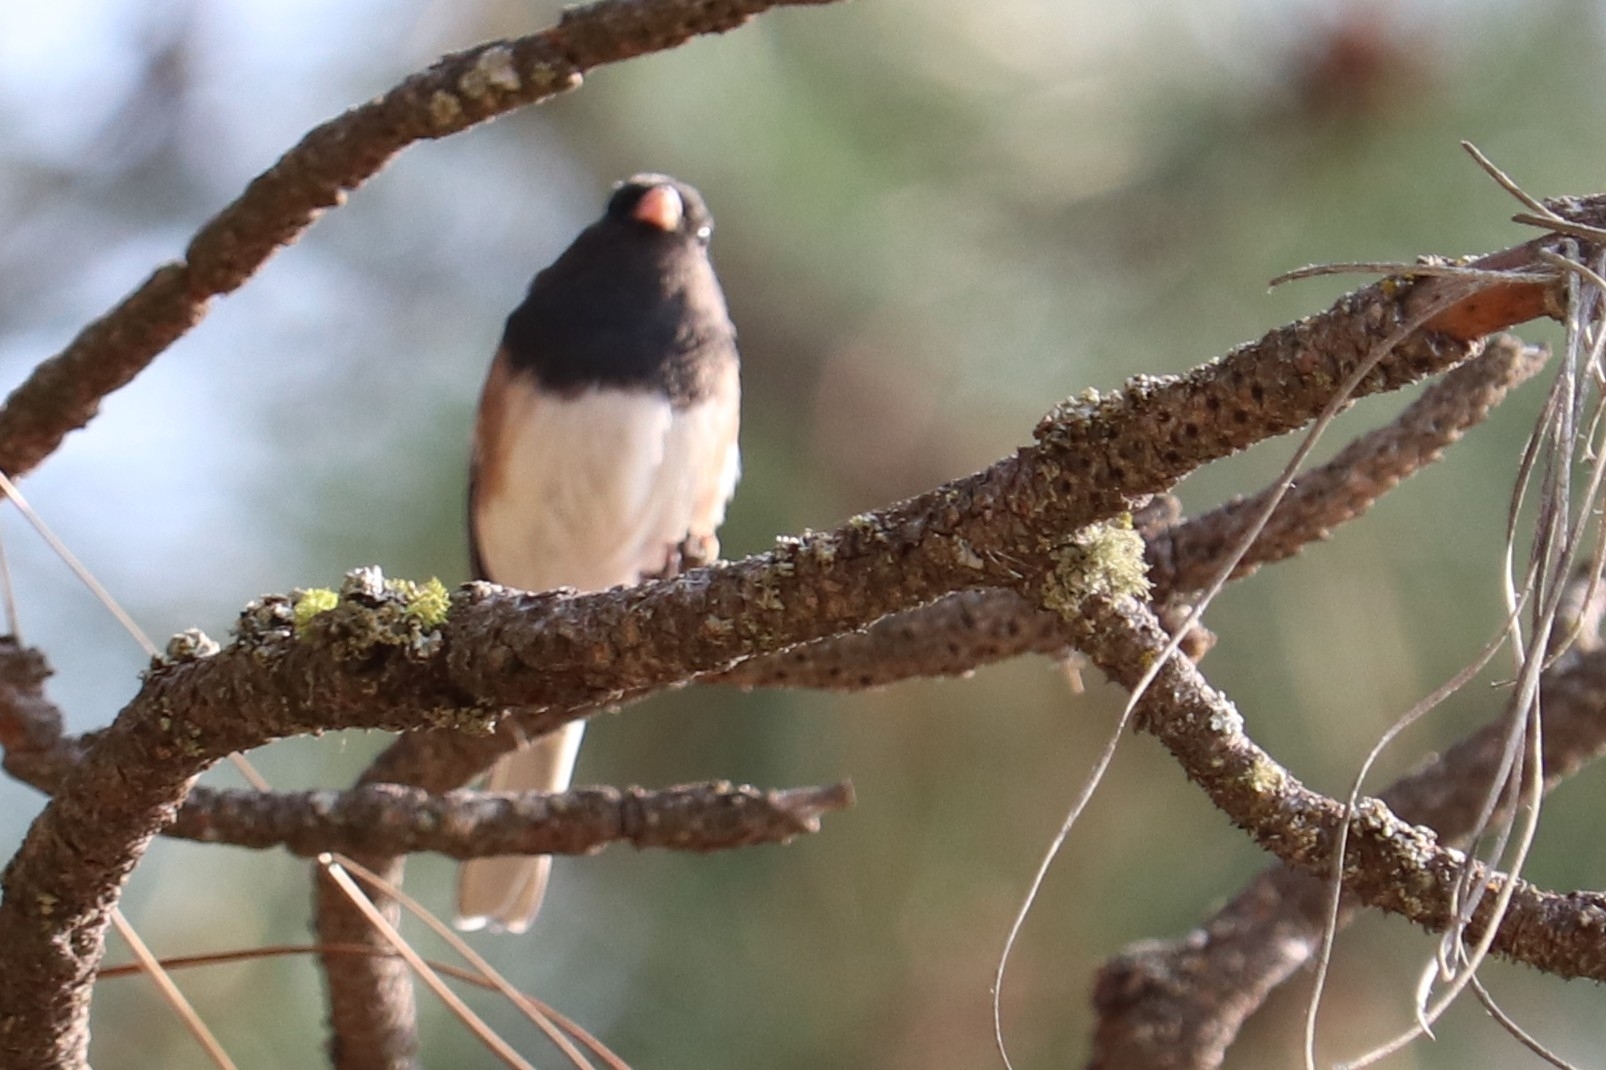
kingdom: Animalia
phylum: Chordata
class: Aves
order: Passeriformes
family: Passerellidae
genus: Junco
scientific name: Junco hyemalis
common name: Dark-eyed junco
